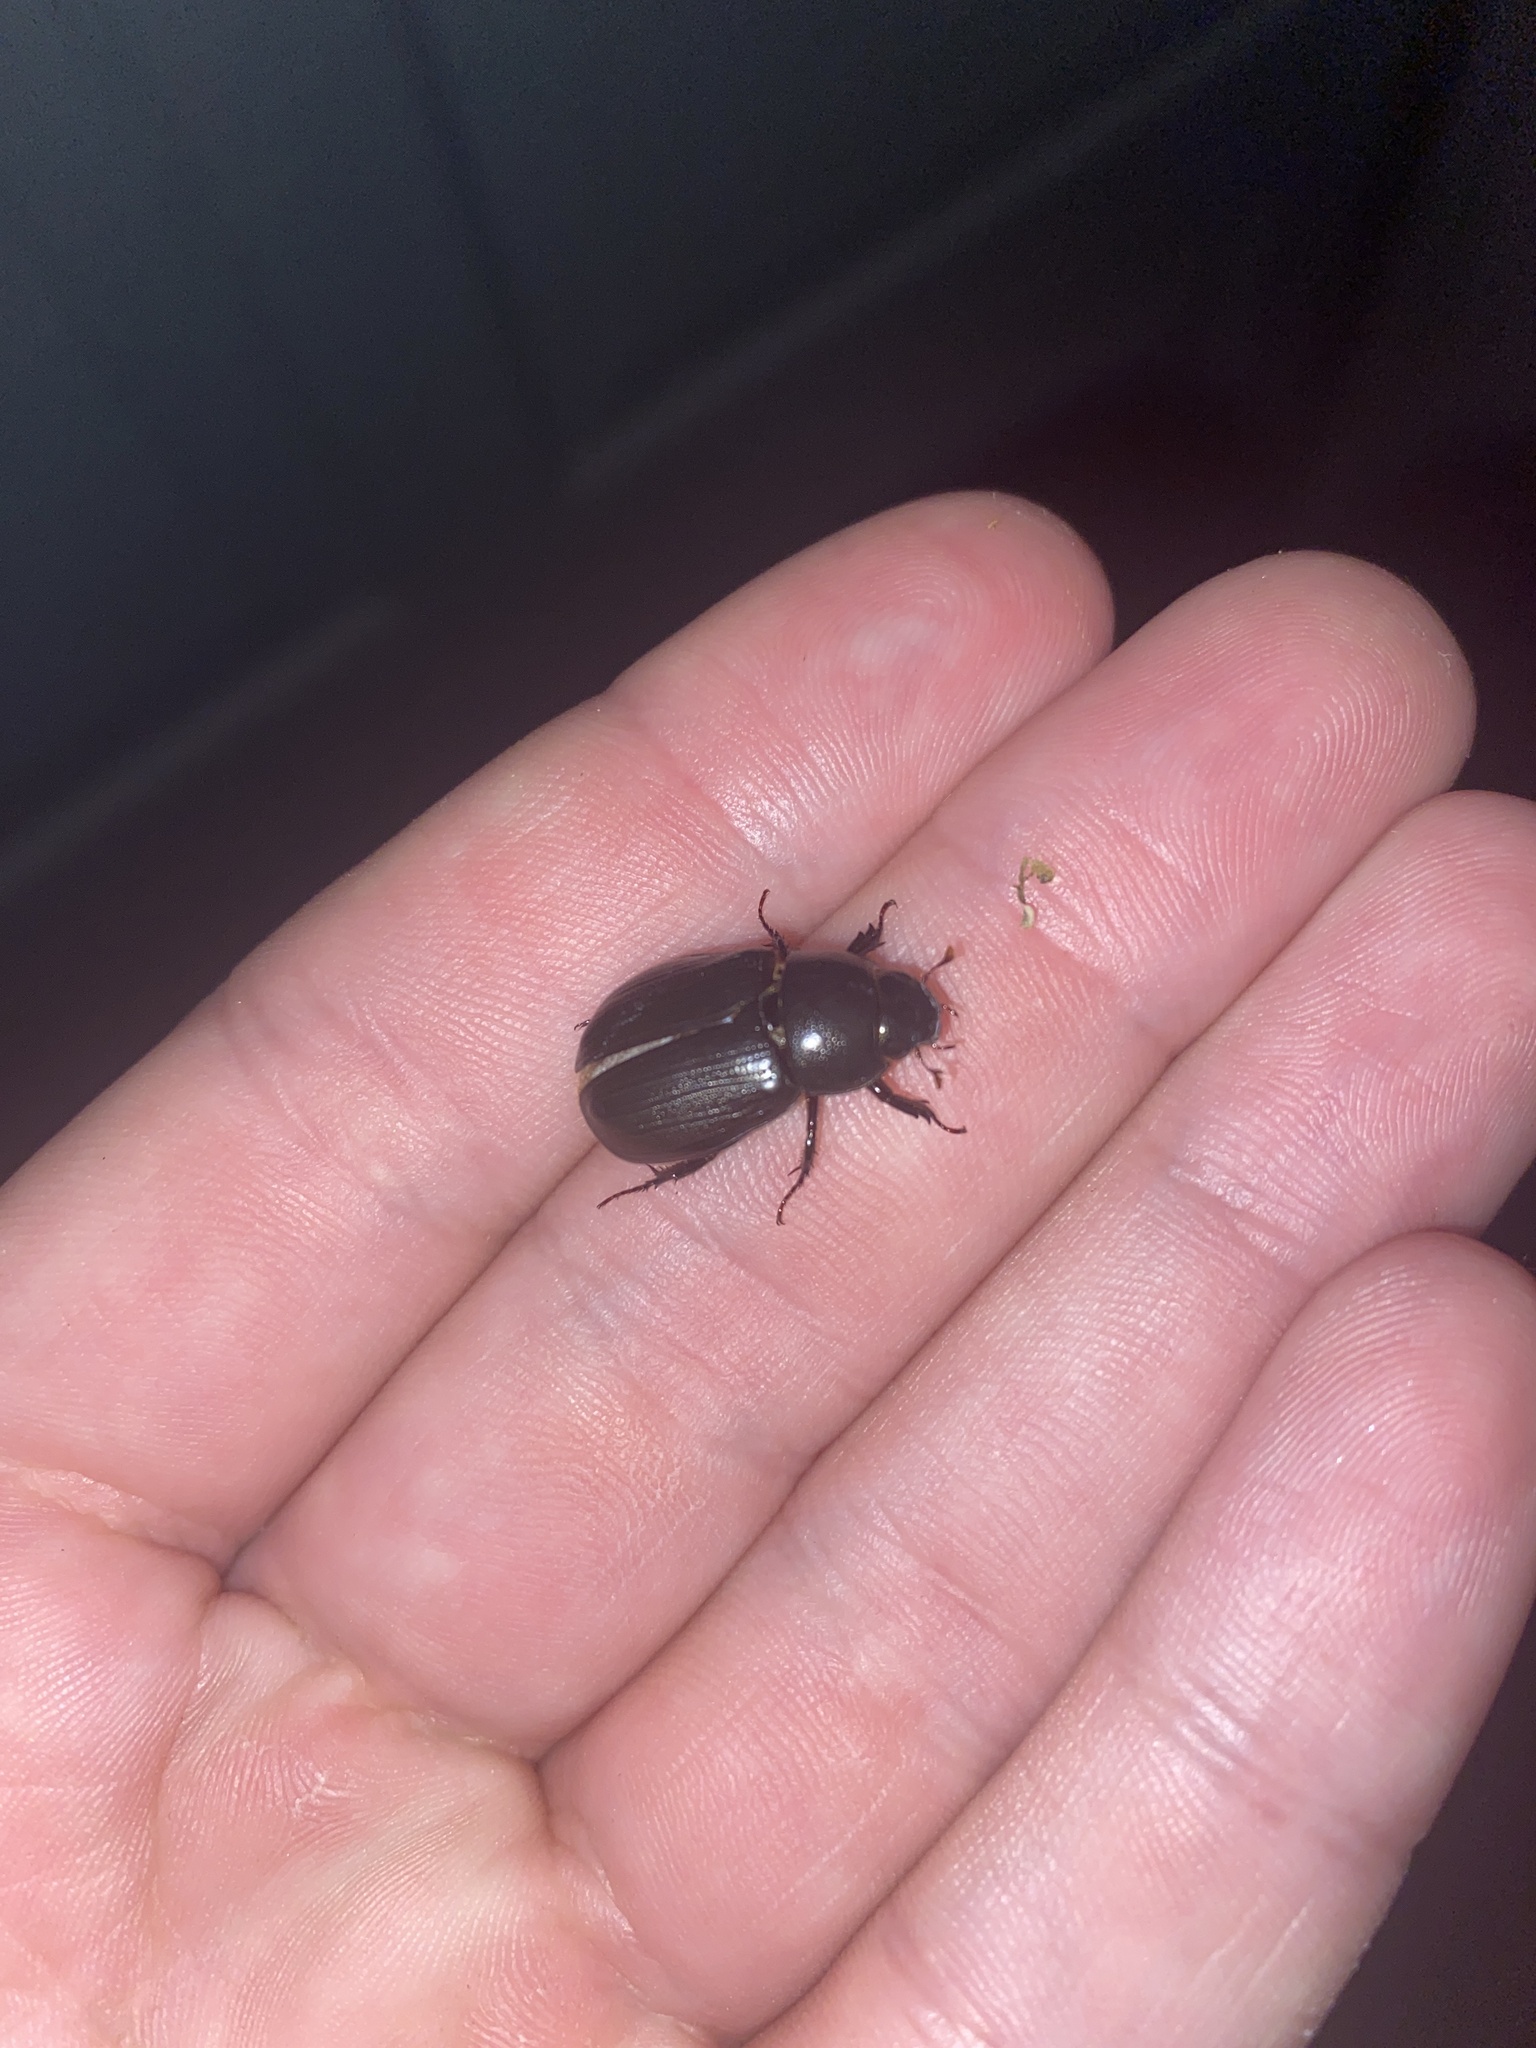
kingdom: Animalia
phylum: Arthropoda
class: Insecta
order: Coleoptera
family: Scarabaeidae
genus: Dyscinetus
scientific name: Dyscinetus morator
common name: Rice beetle
